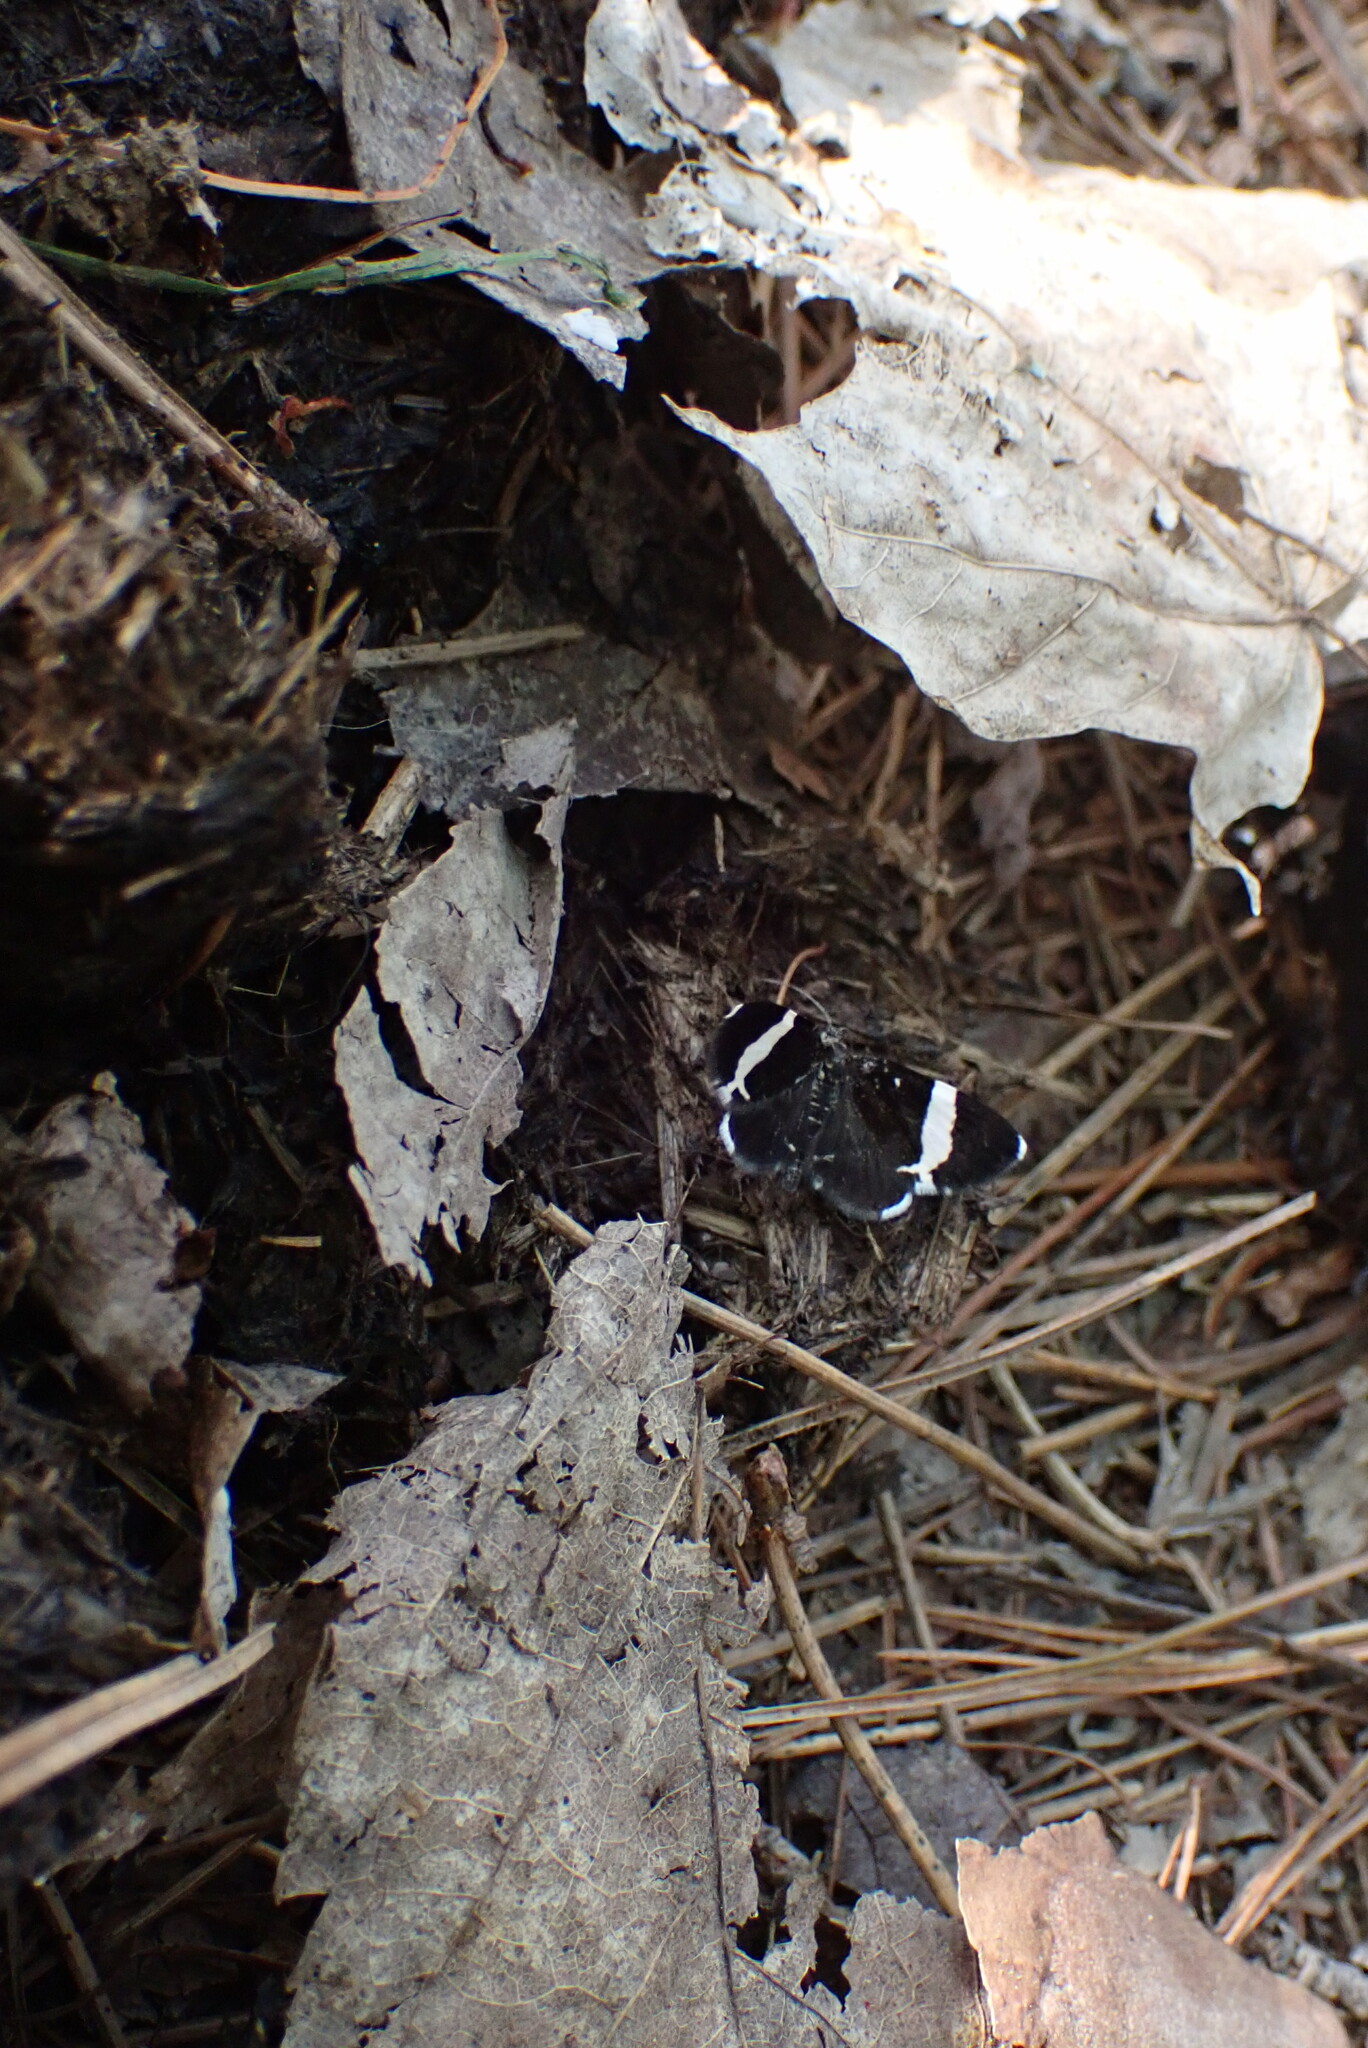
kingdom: Animalia
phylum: Arthropoda
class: Insecta
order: Lepidoptera
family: Geometridae
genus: Trichodezia
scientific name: Trichodezia albovittata
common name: White striped black
